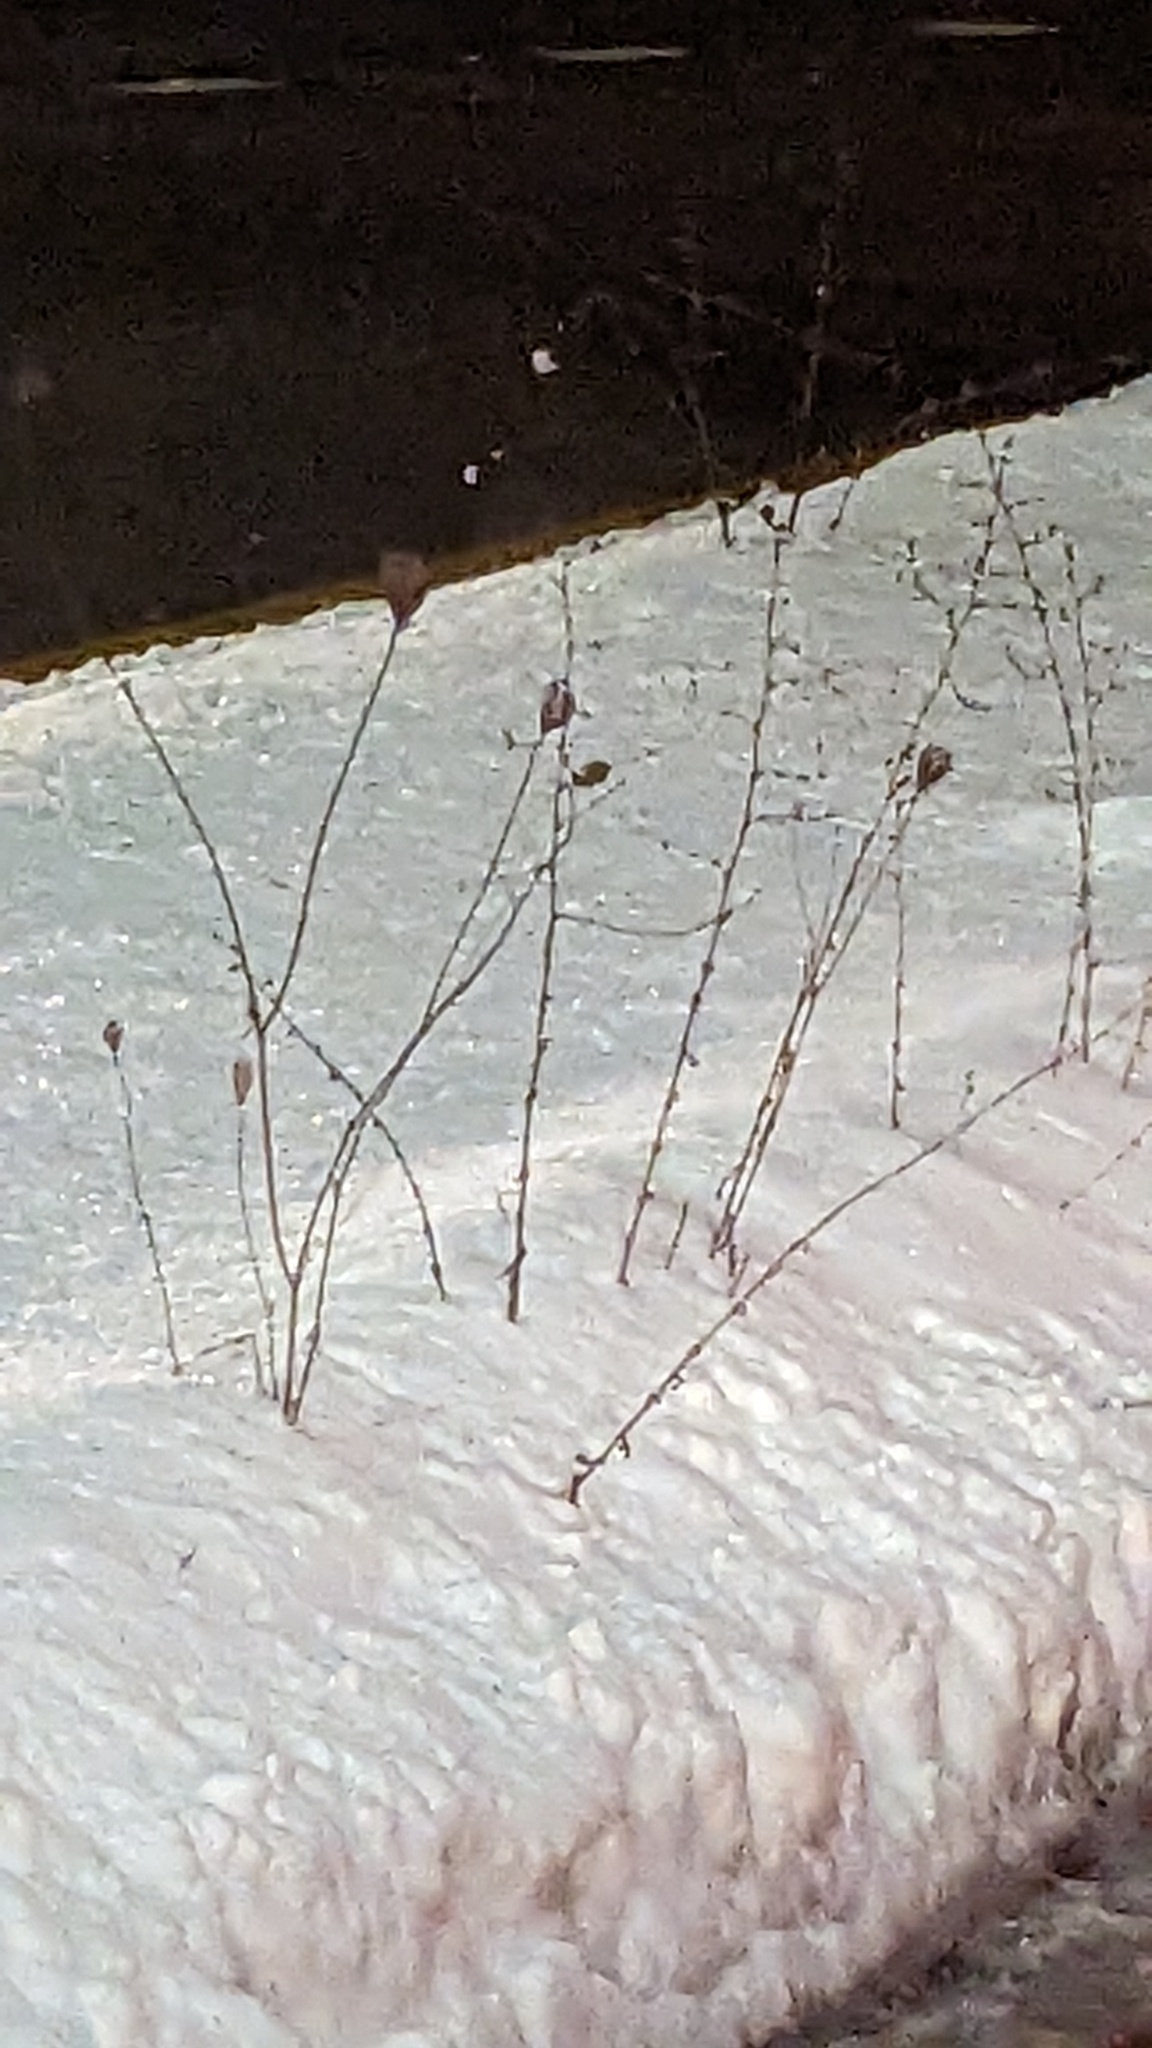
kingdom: Plantae
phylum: Tracheophyta
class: Magnoliopsida
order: Apiales
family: Apiaceae
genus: Daucus
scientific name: Daucus carota
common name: Wild carrot
